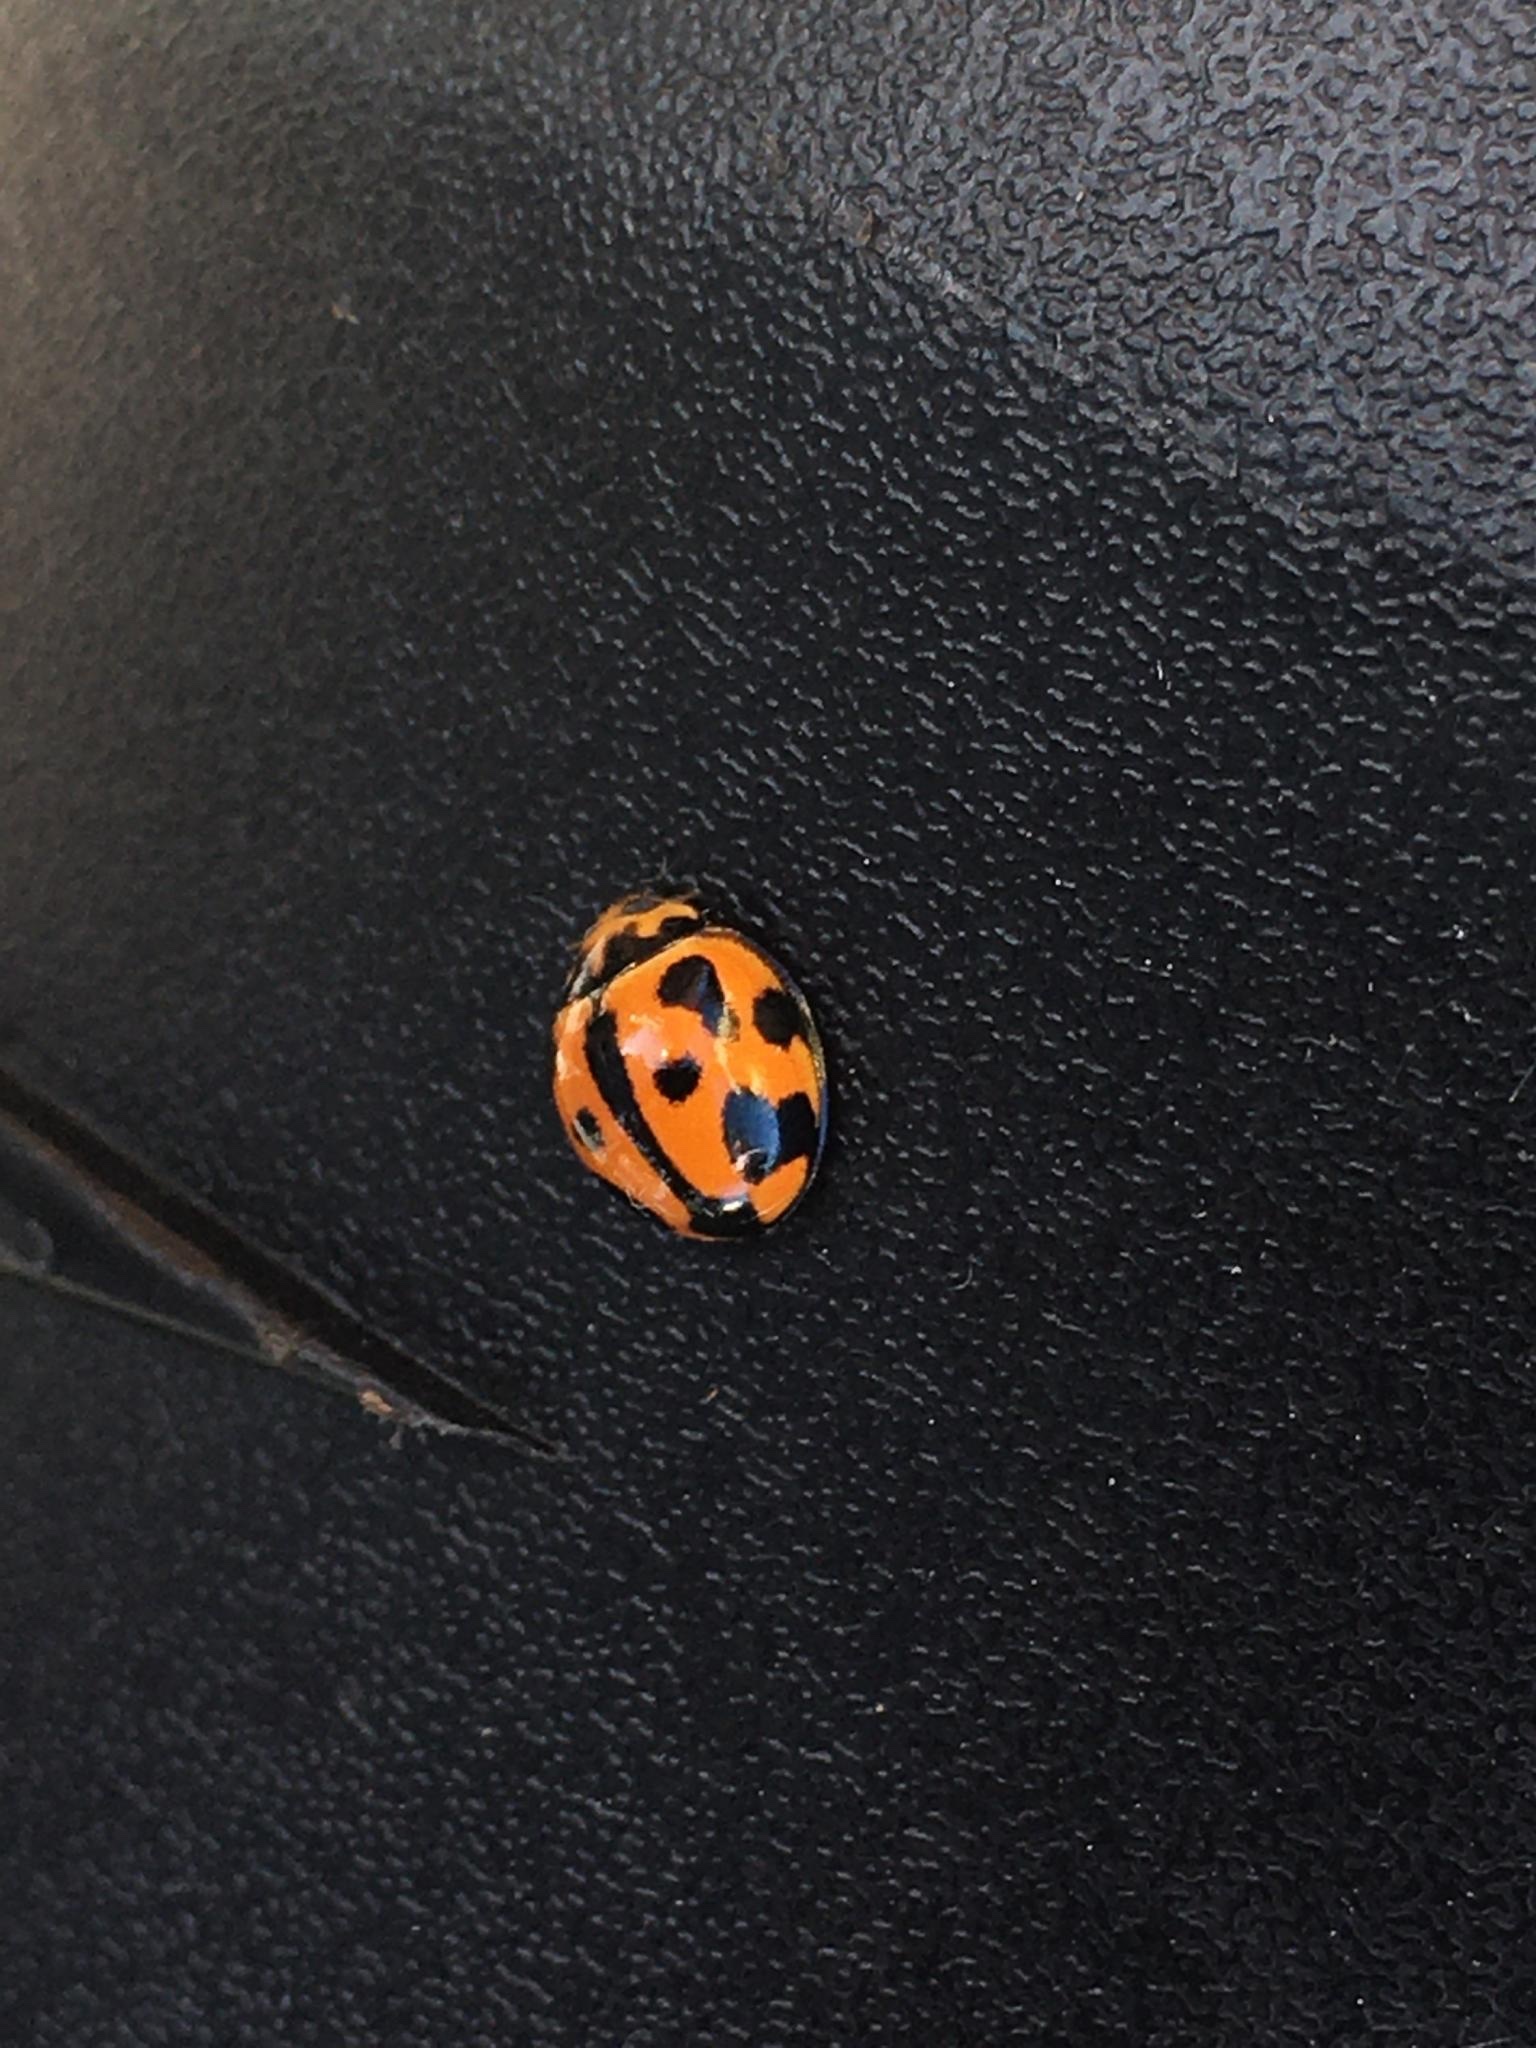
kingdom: Animalia
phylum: Arthropoda
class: Insecta
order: Coleoptera
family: Coccinellidae
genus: Coelophora
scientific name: Coelophora inaequalis
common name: Common australian lady beetle
